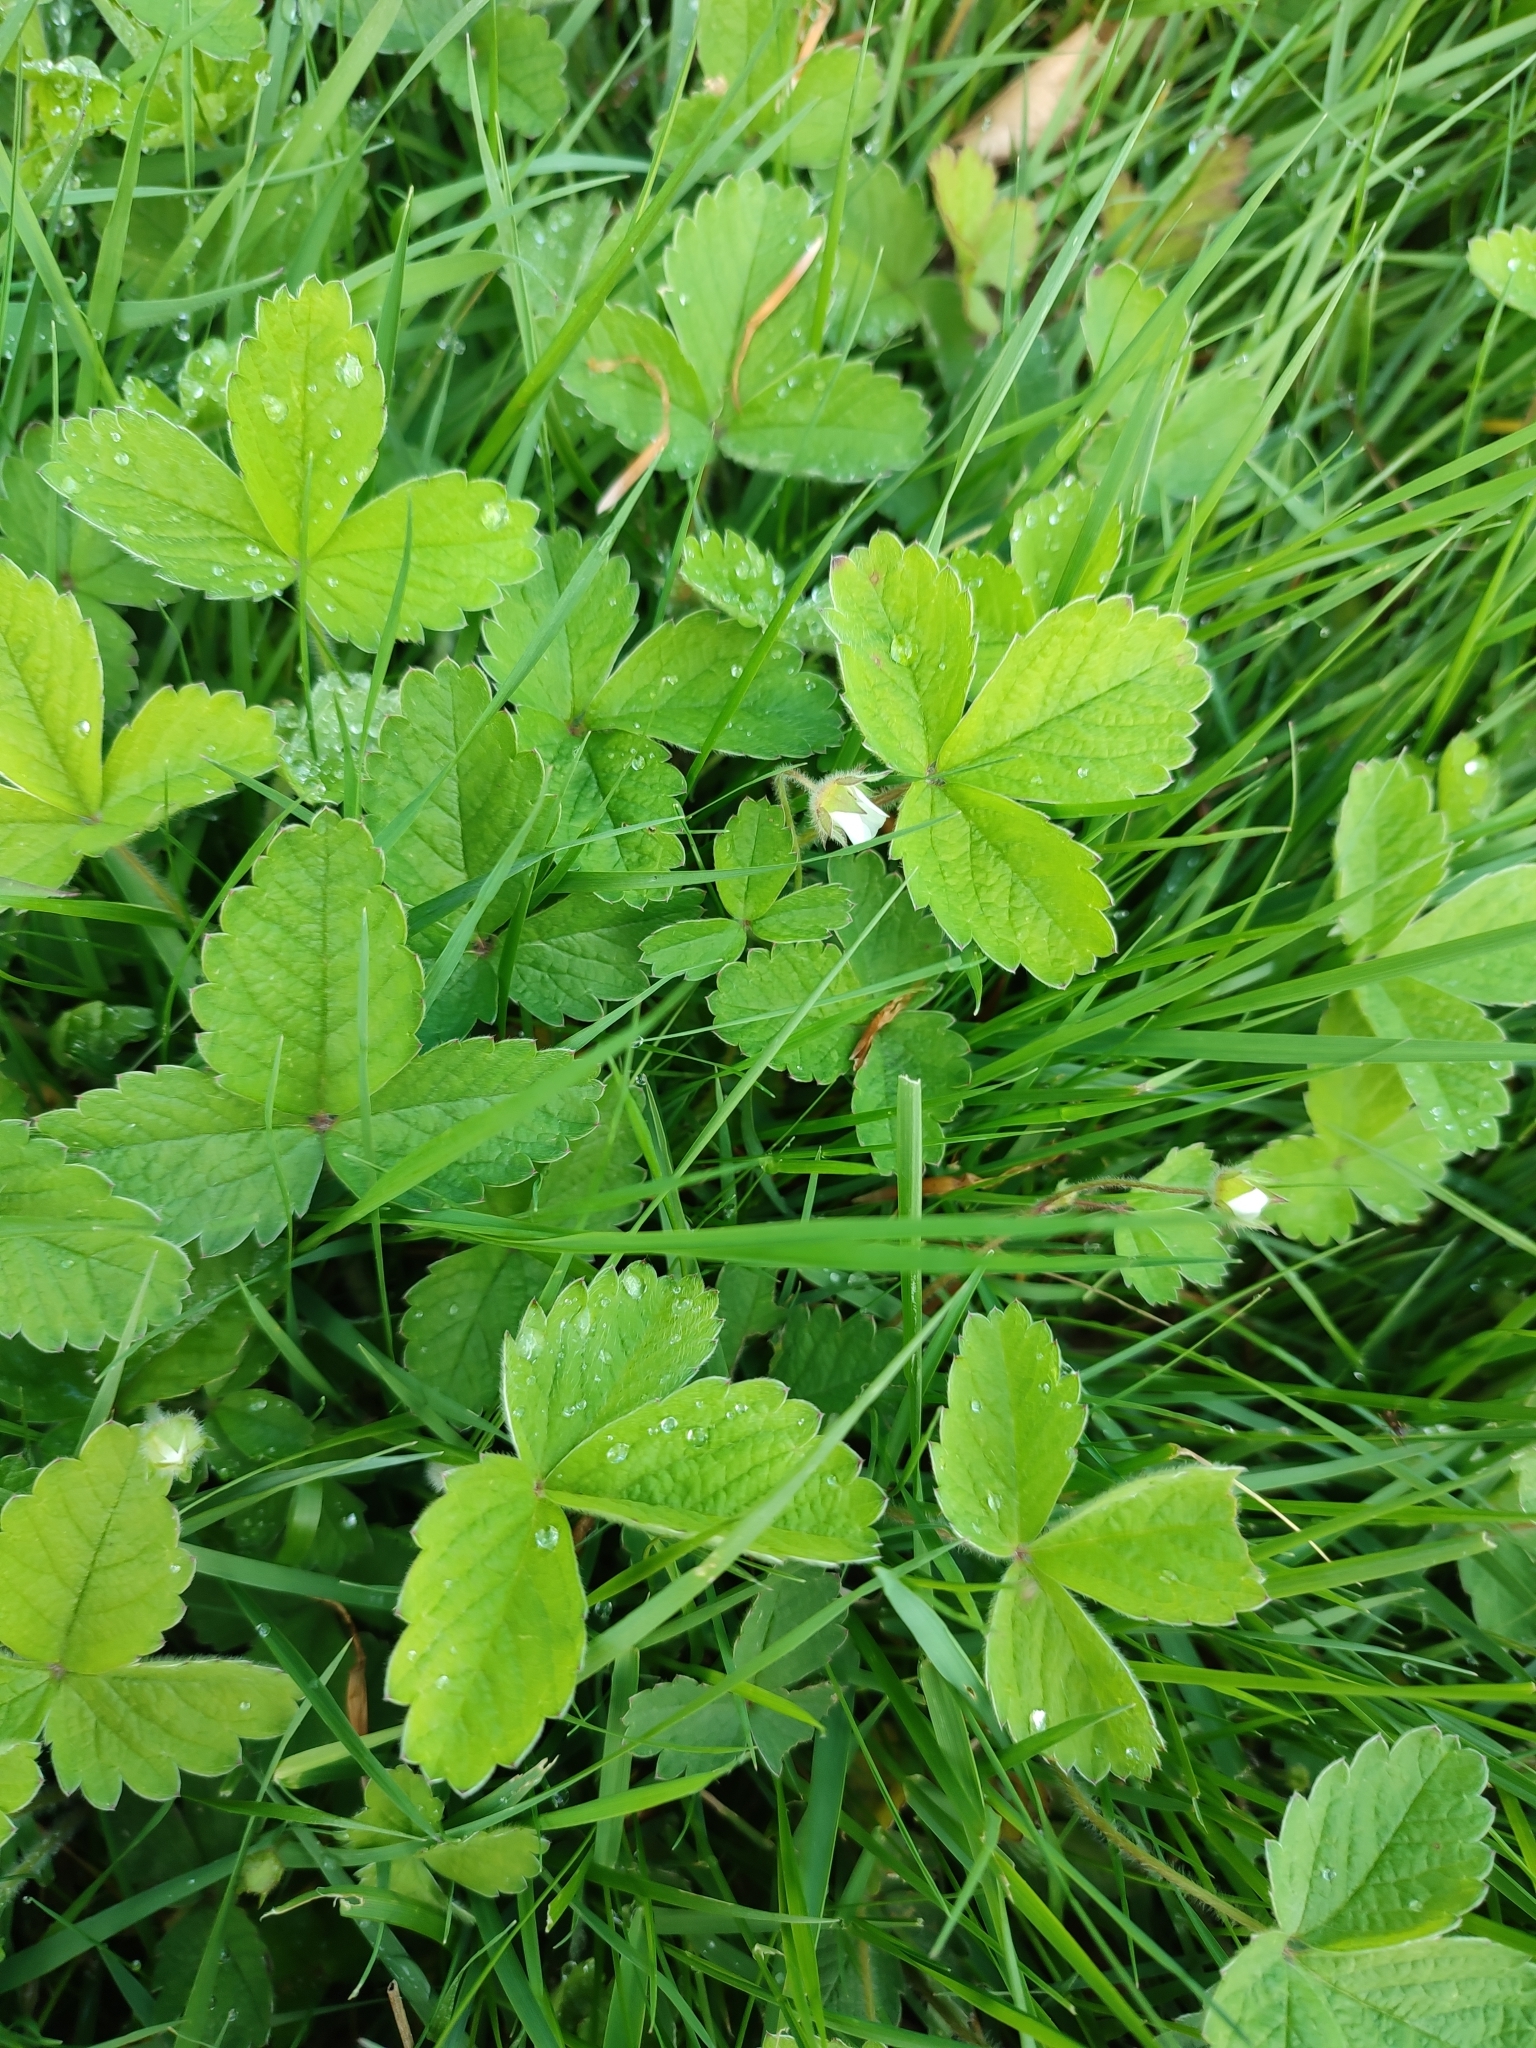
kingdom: Plantae
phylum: Tracheophyta
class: Magnoliopsida
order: Rosales
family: Rosaceae
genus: Potentilla
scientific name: Potentilla sterilis
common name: Barren strawberry
